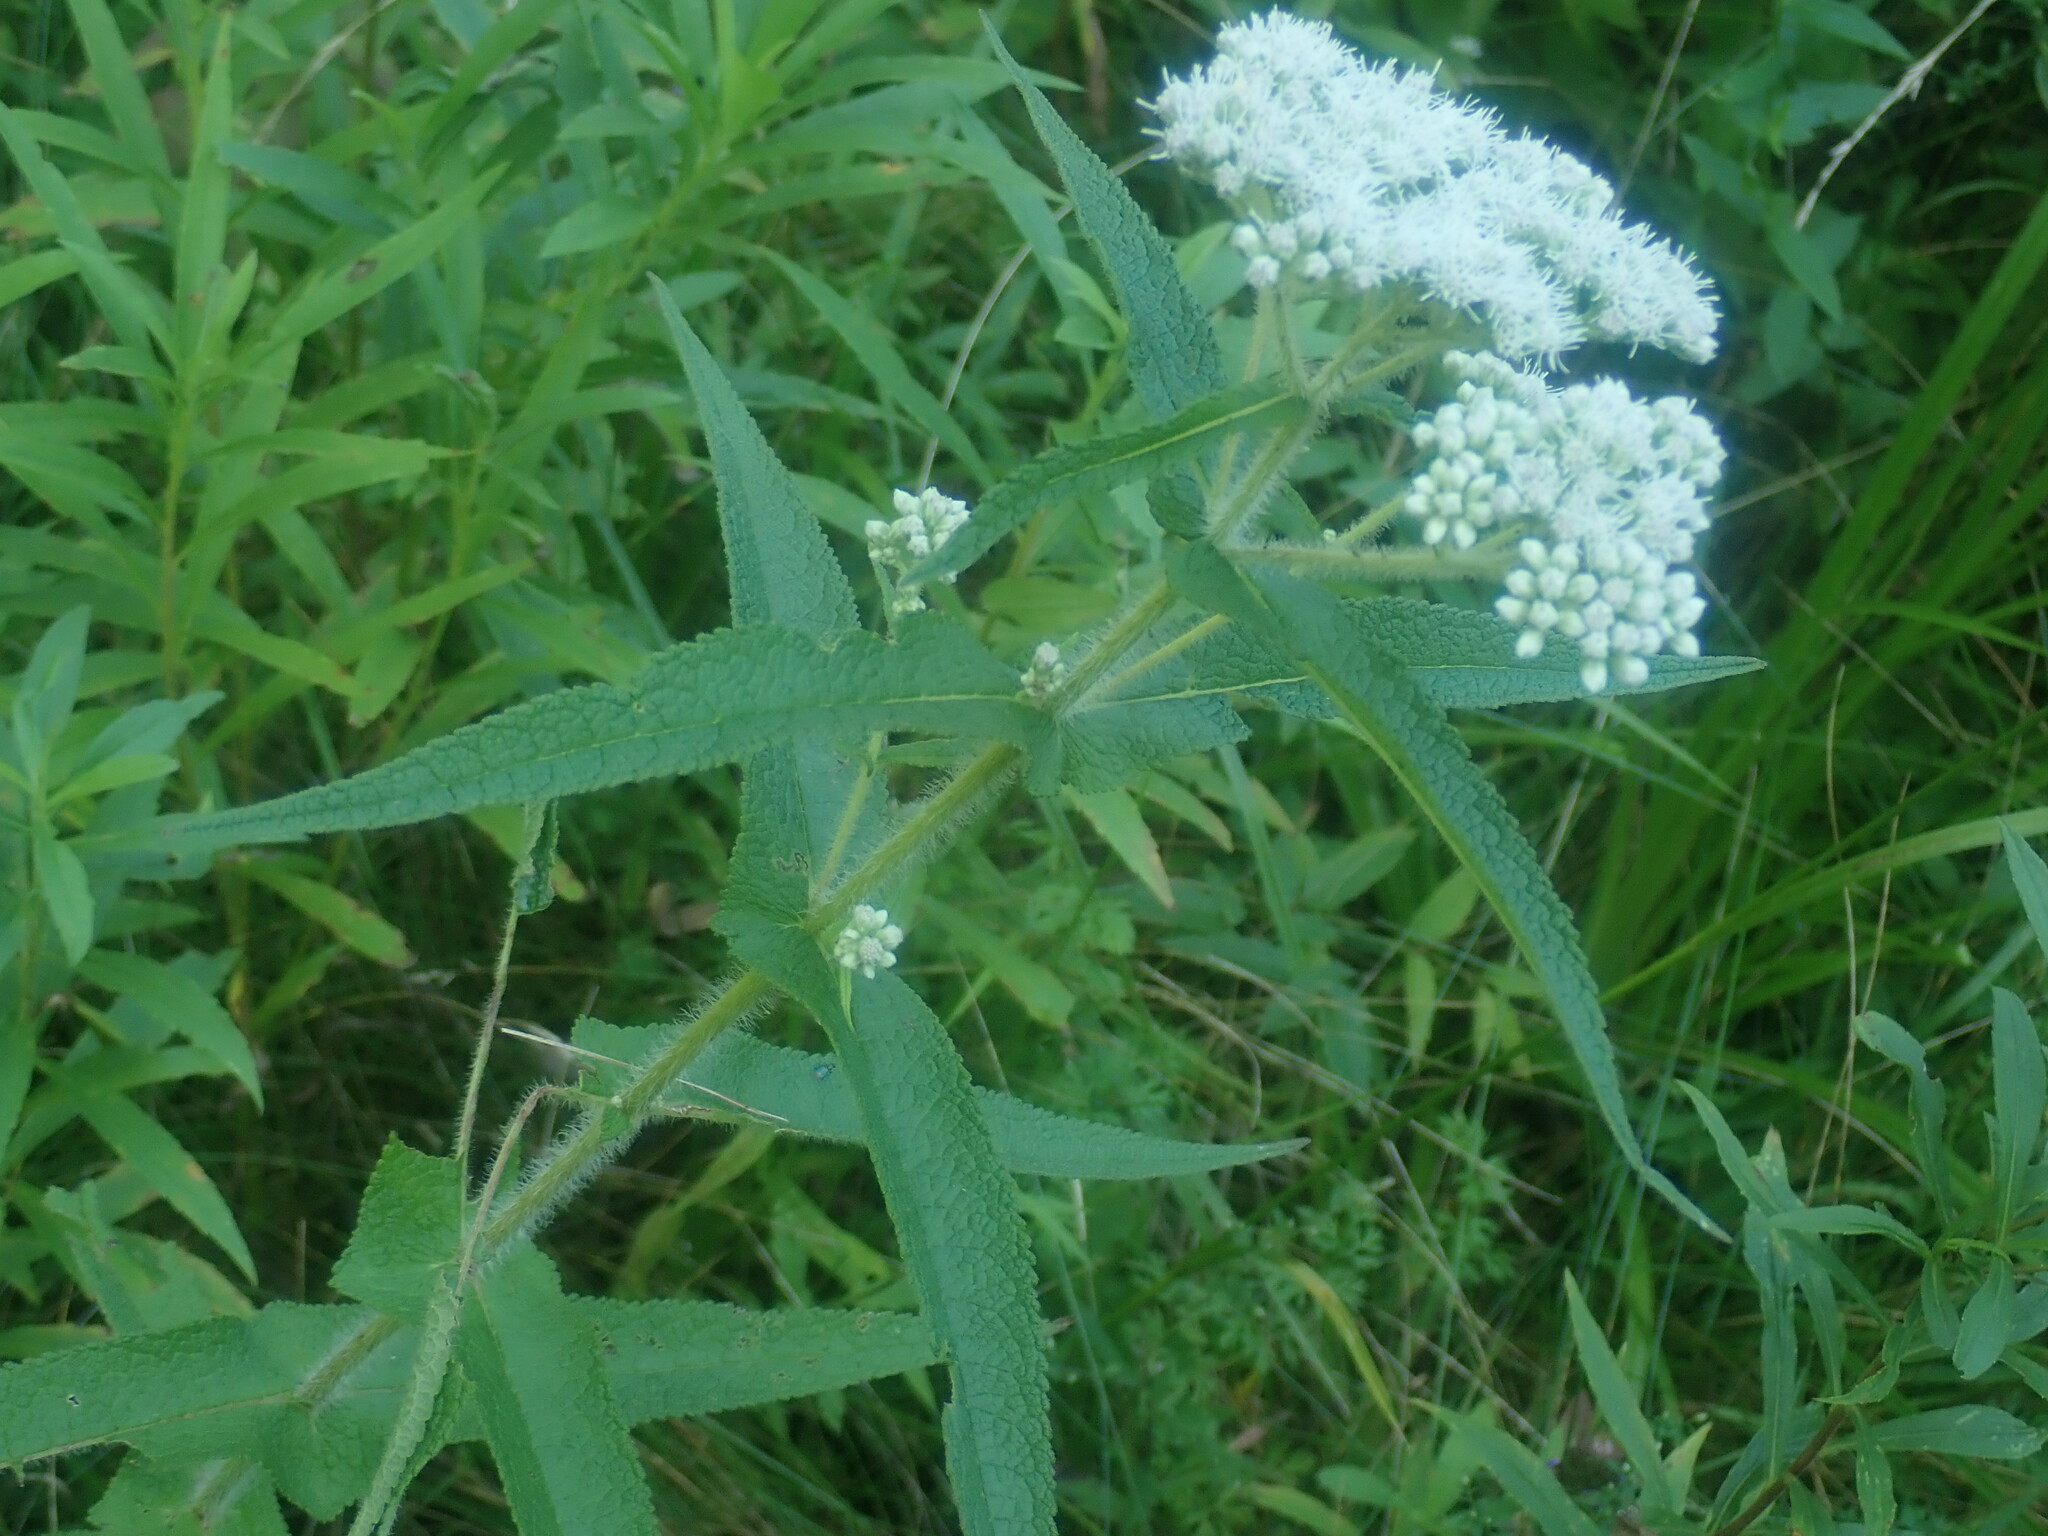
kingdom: Plantae
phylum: Tracheophyta
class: Magnoliopsida
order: Asterales
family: Asteraceae
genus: Eupatorium
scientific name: Eupatorium perfoliatum
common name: Boneset
